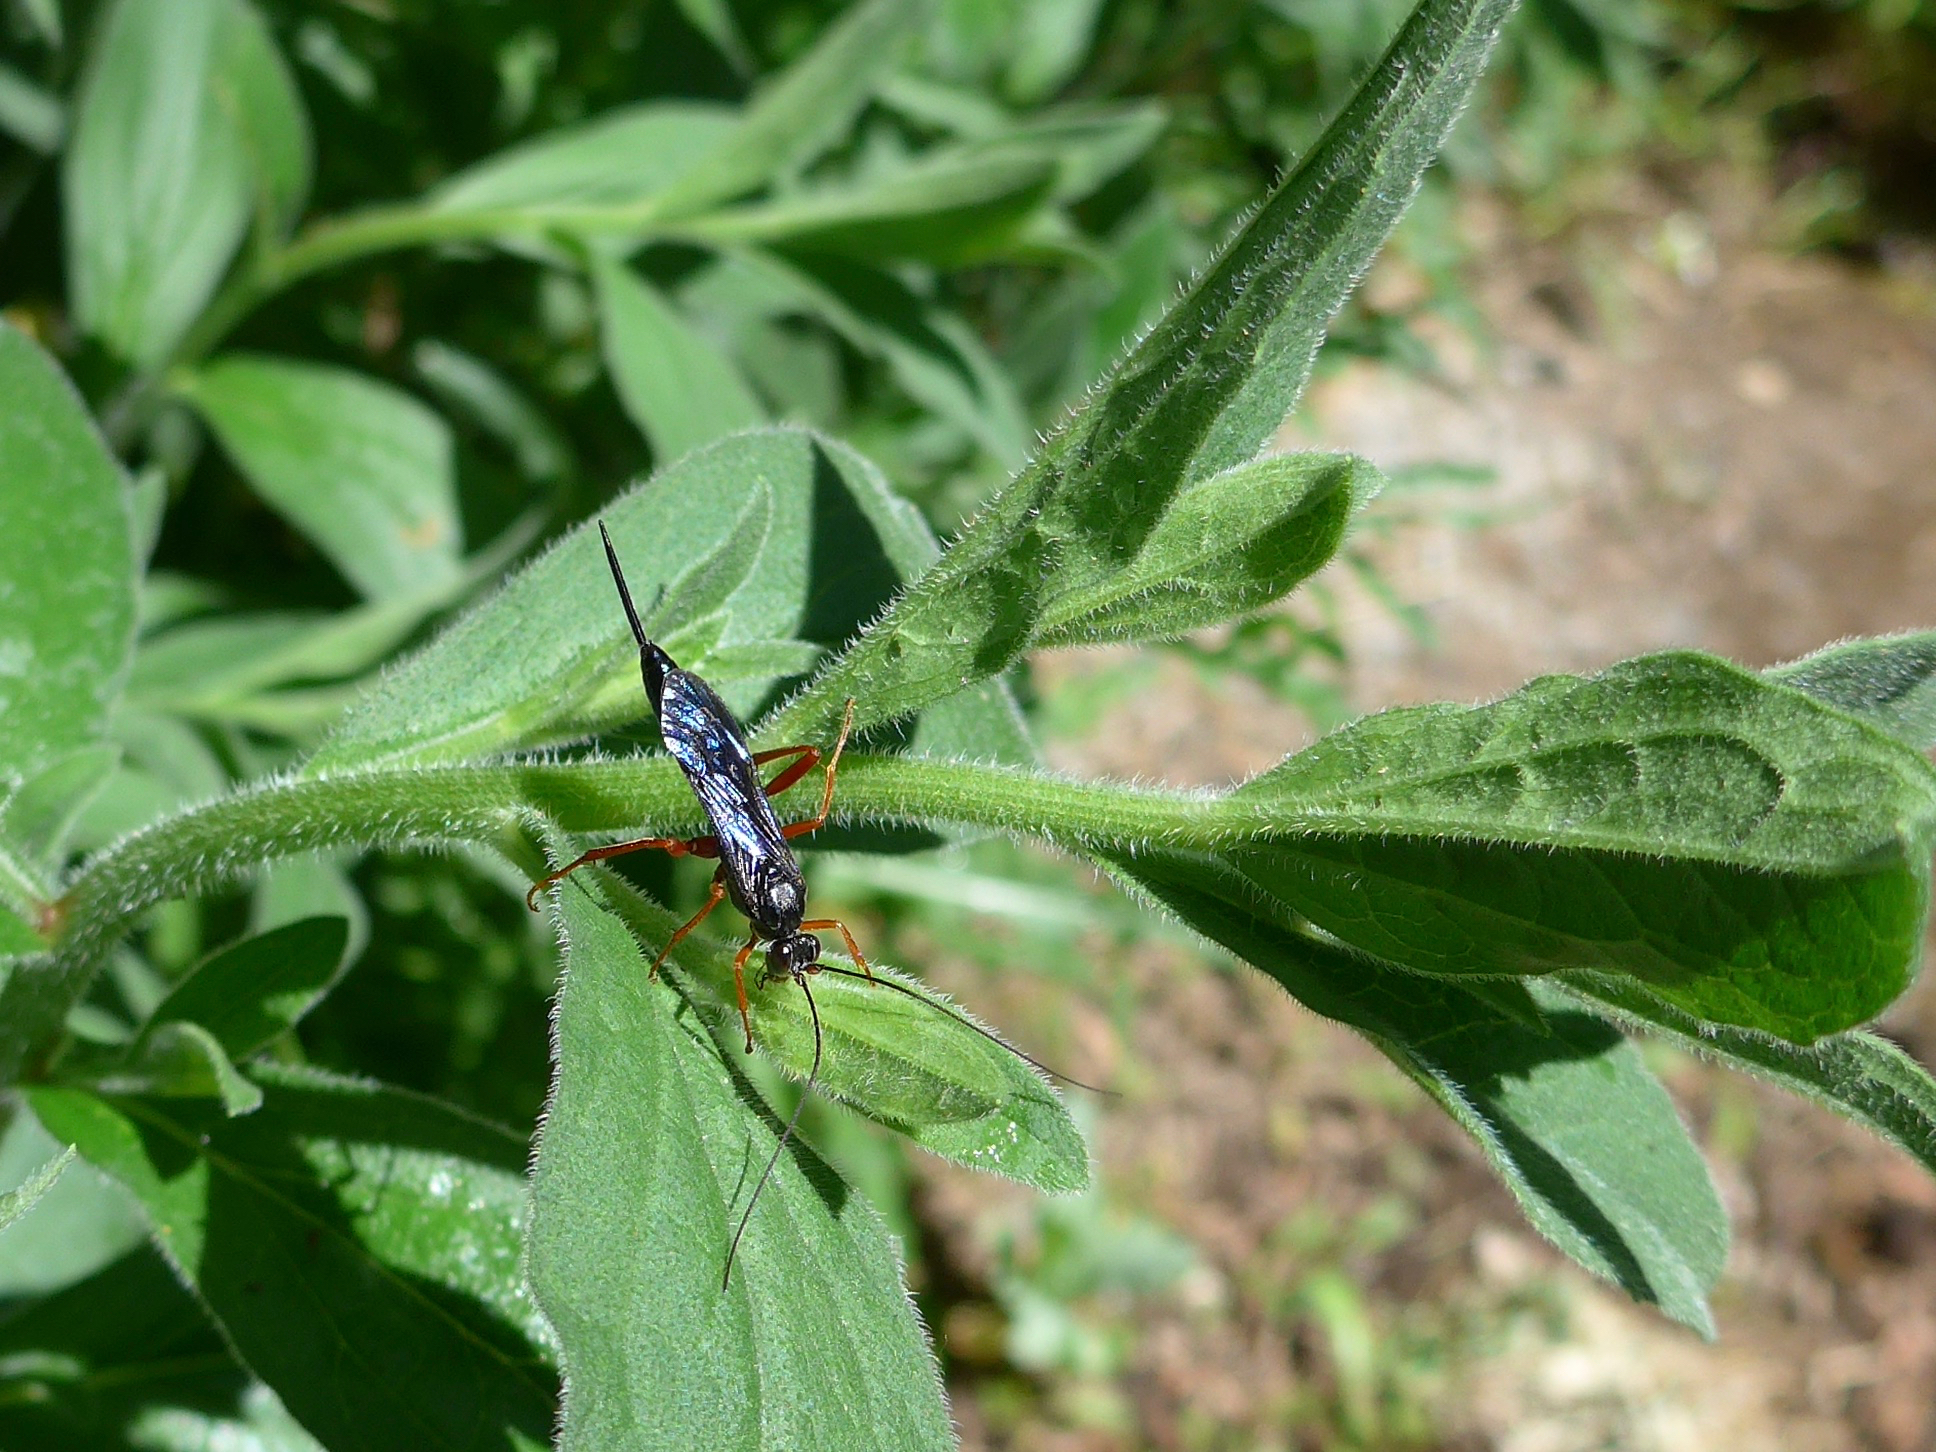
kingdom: Animalia
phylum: Arthropoda
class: Insecta
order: Hymenoptera
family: Ichneumonidae
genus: Buathra
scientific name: Buathra perplexa
